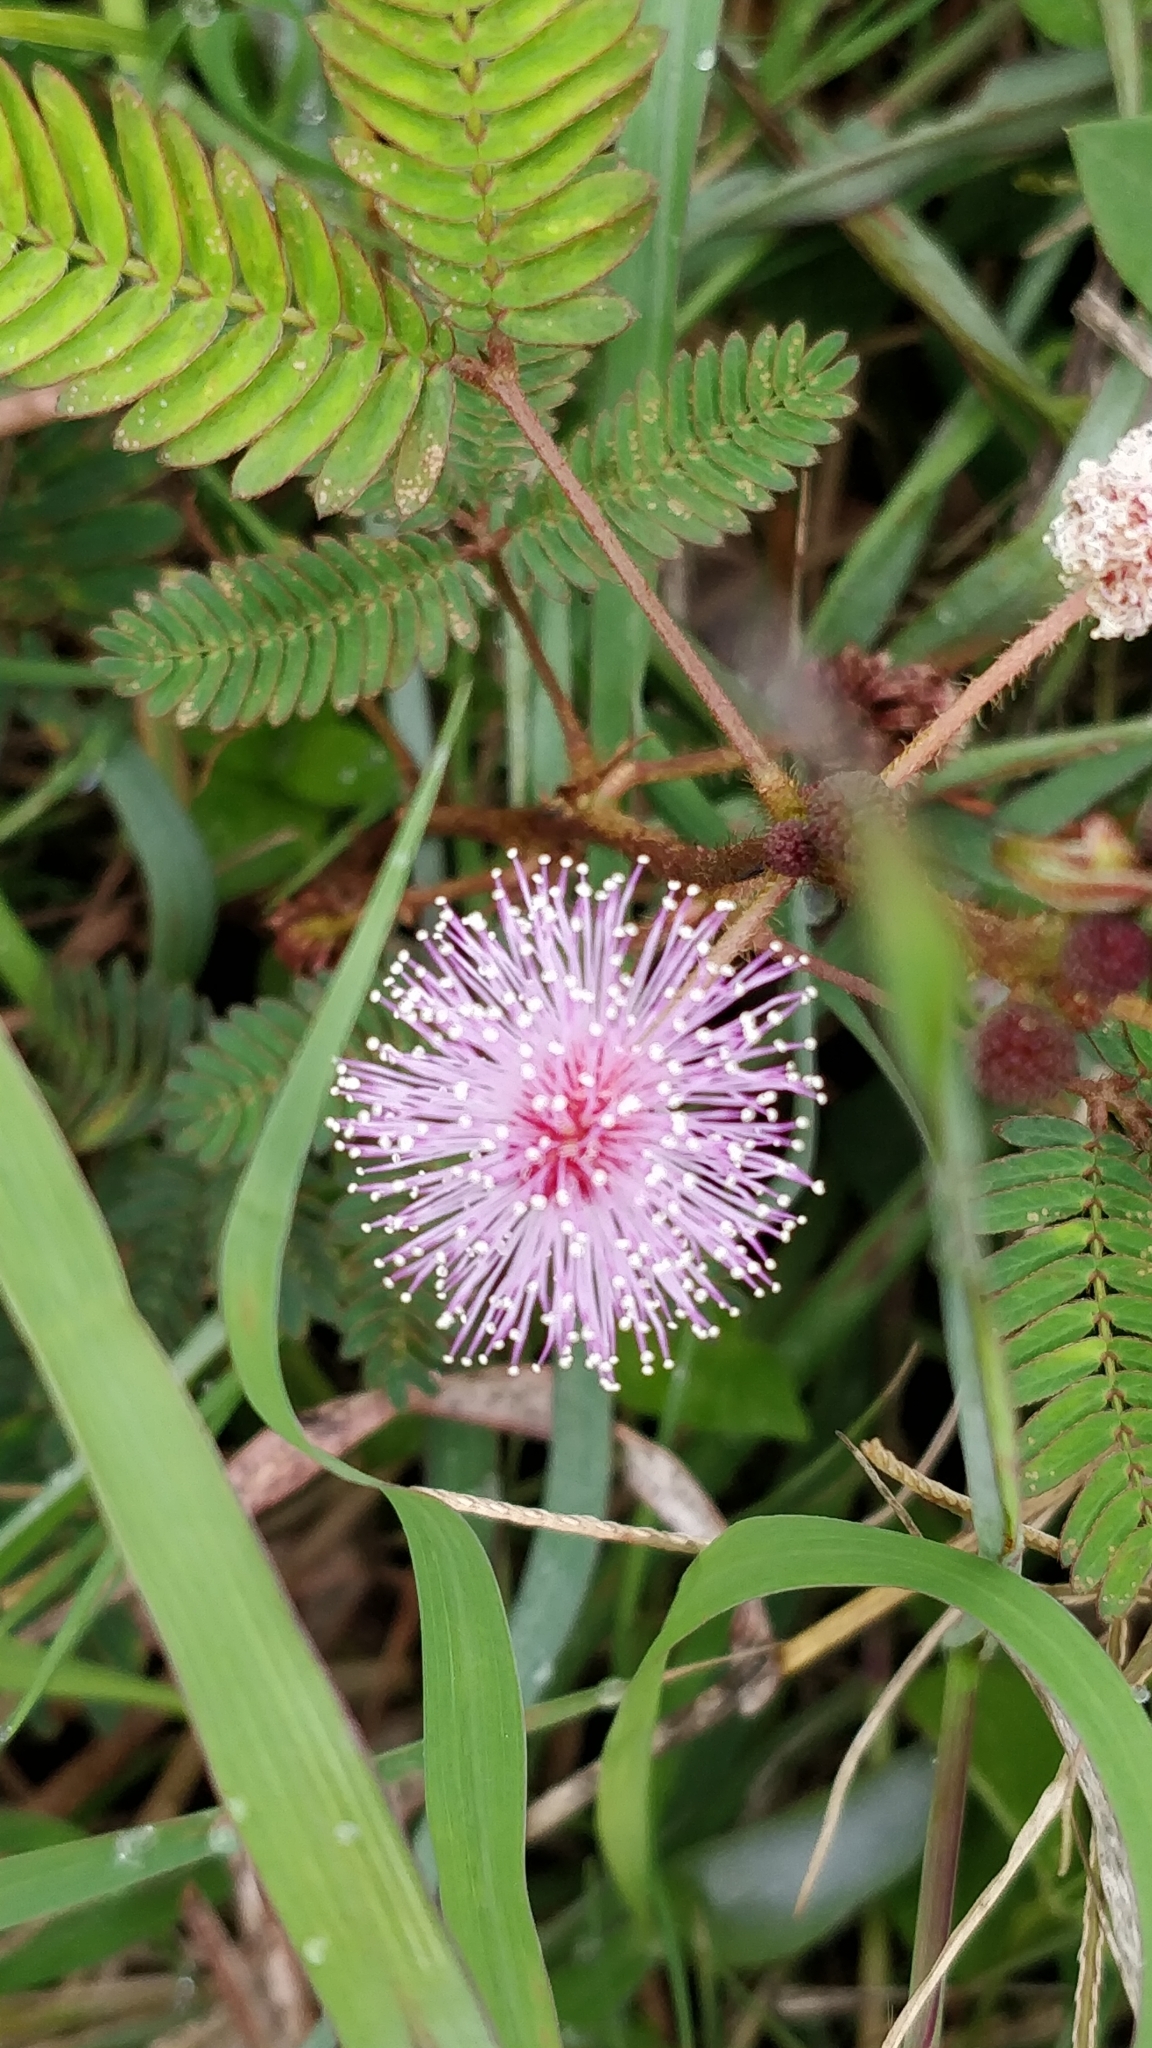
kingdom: Plantae
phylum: Tracheophyta
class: Magnoliopsida
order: Fabales
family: Fabaceae
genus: Mimosa
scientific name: Mimosa pudica
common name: Sensitive plant
